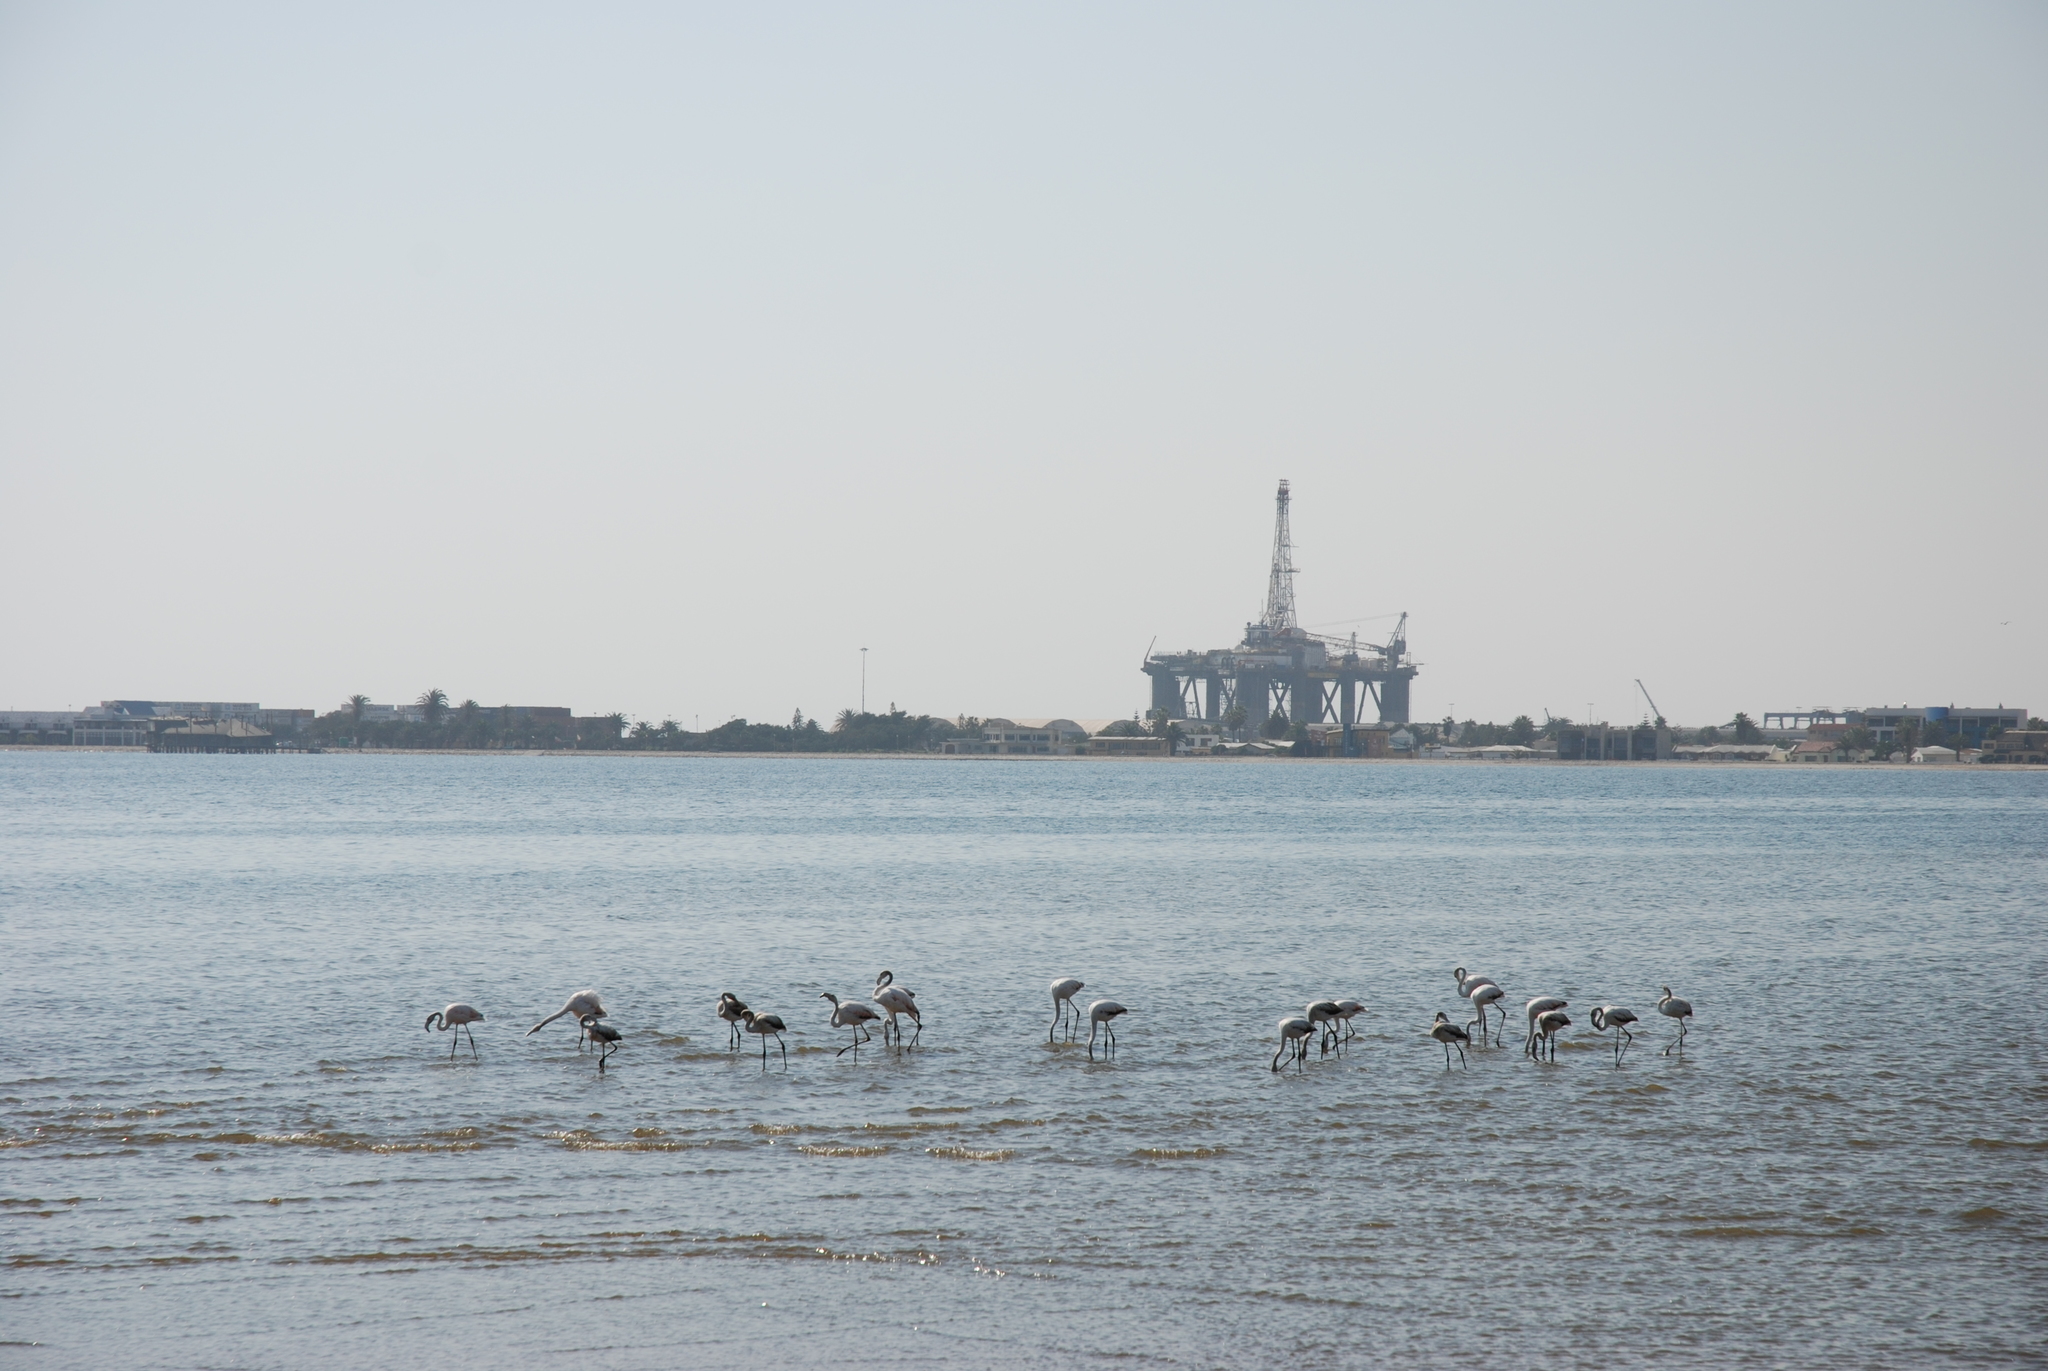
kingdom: Animalia
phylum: Chordata
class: Aves
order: Phoenicopteriformes
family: Phoenicopteridae
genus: Phoenicopterus
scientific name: Phoenicopterus roseus
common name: Greater flamingo
